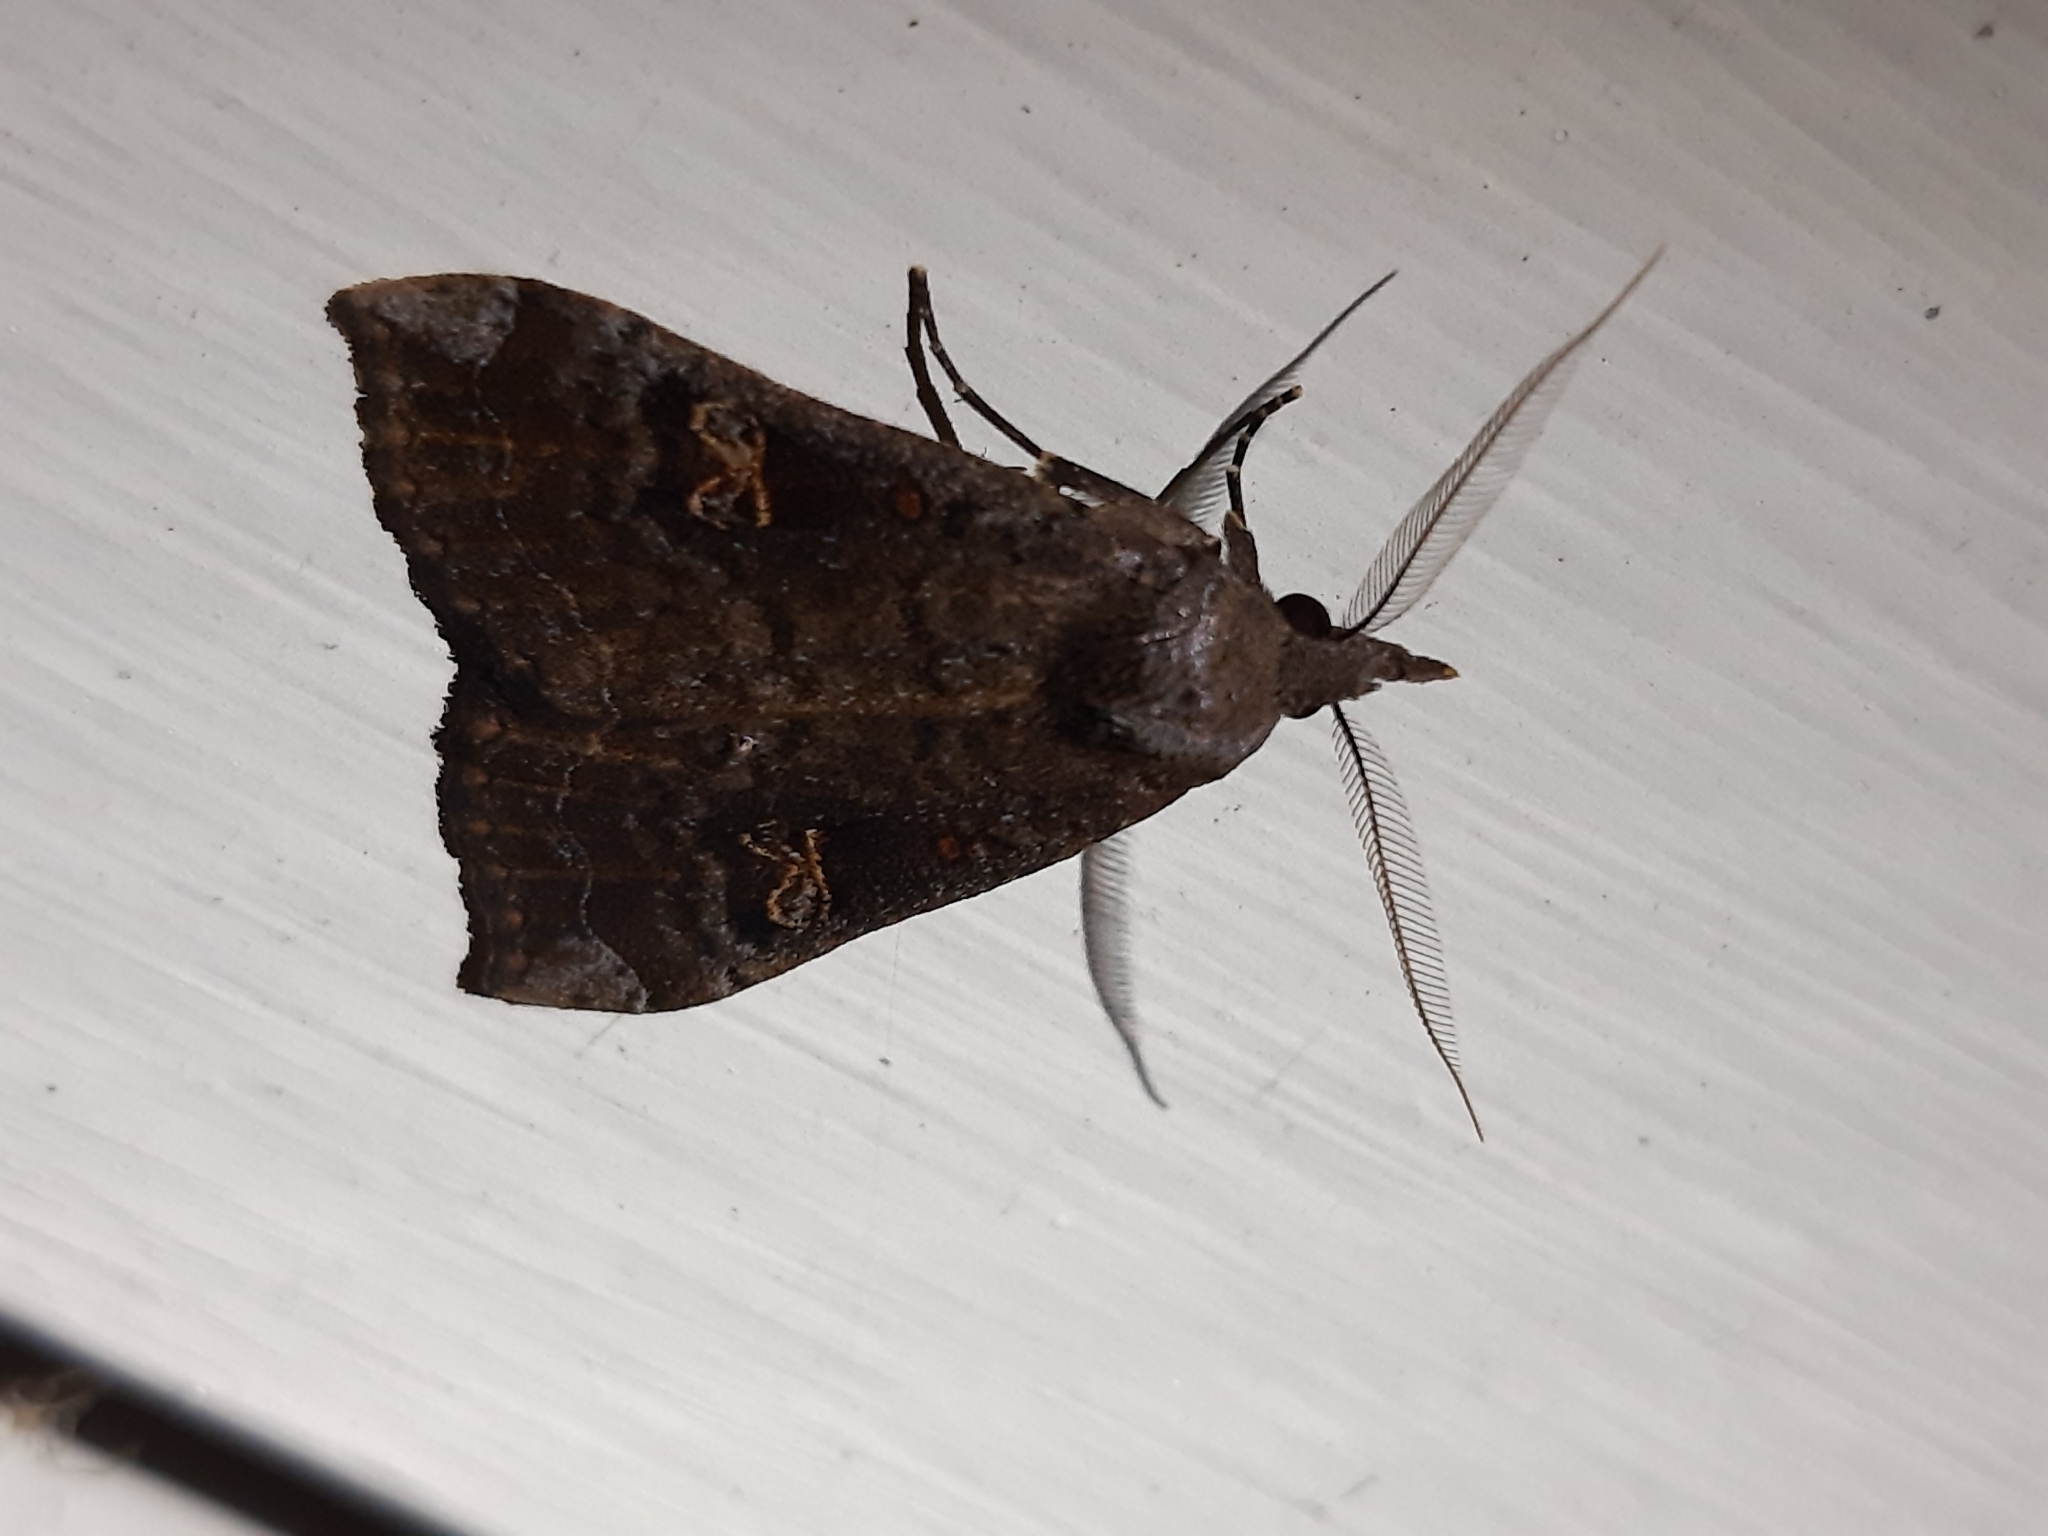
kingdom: Animalia
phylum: Arthropoda
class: Insecta
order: Lepidoptera
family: Erebidae
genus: Rhapsa
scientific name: Rhapsa scotosialis
